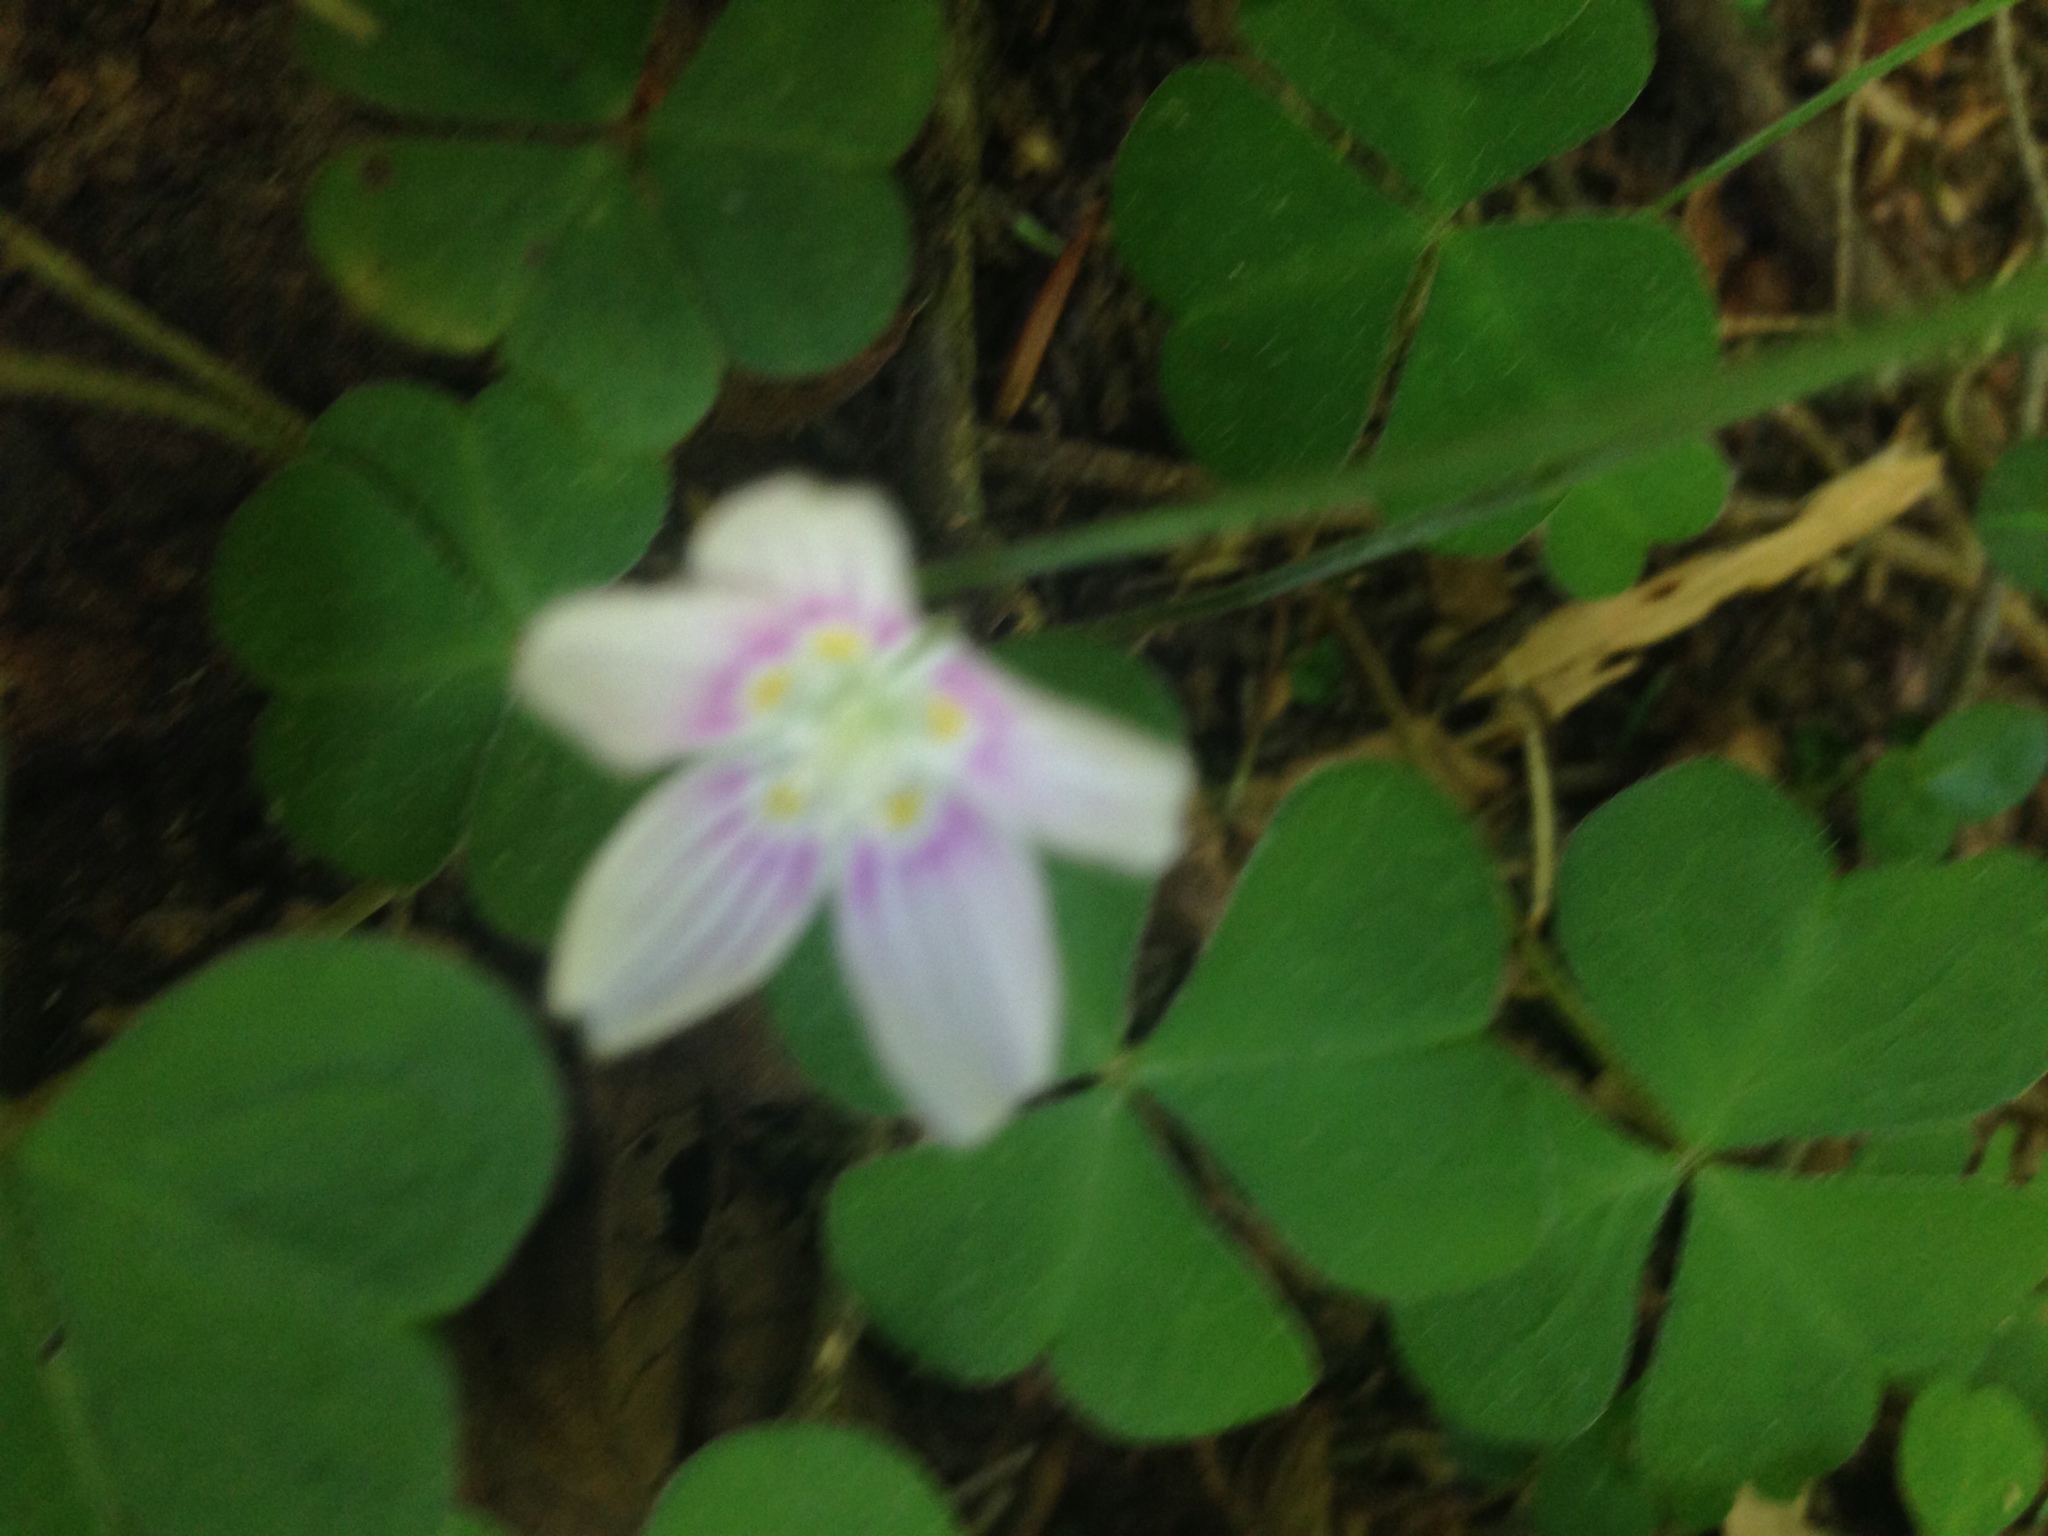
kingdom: Plantae
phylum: Tracheophyta
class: Magnoliopsida
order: Oxalidales
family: Oxalidaceae
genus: Oxalis
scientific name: Oxalis montana
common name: American wood-sorrel
